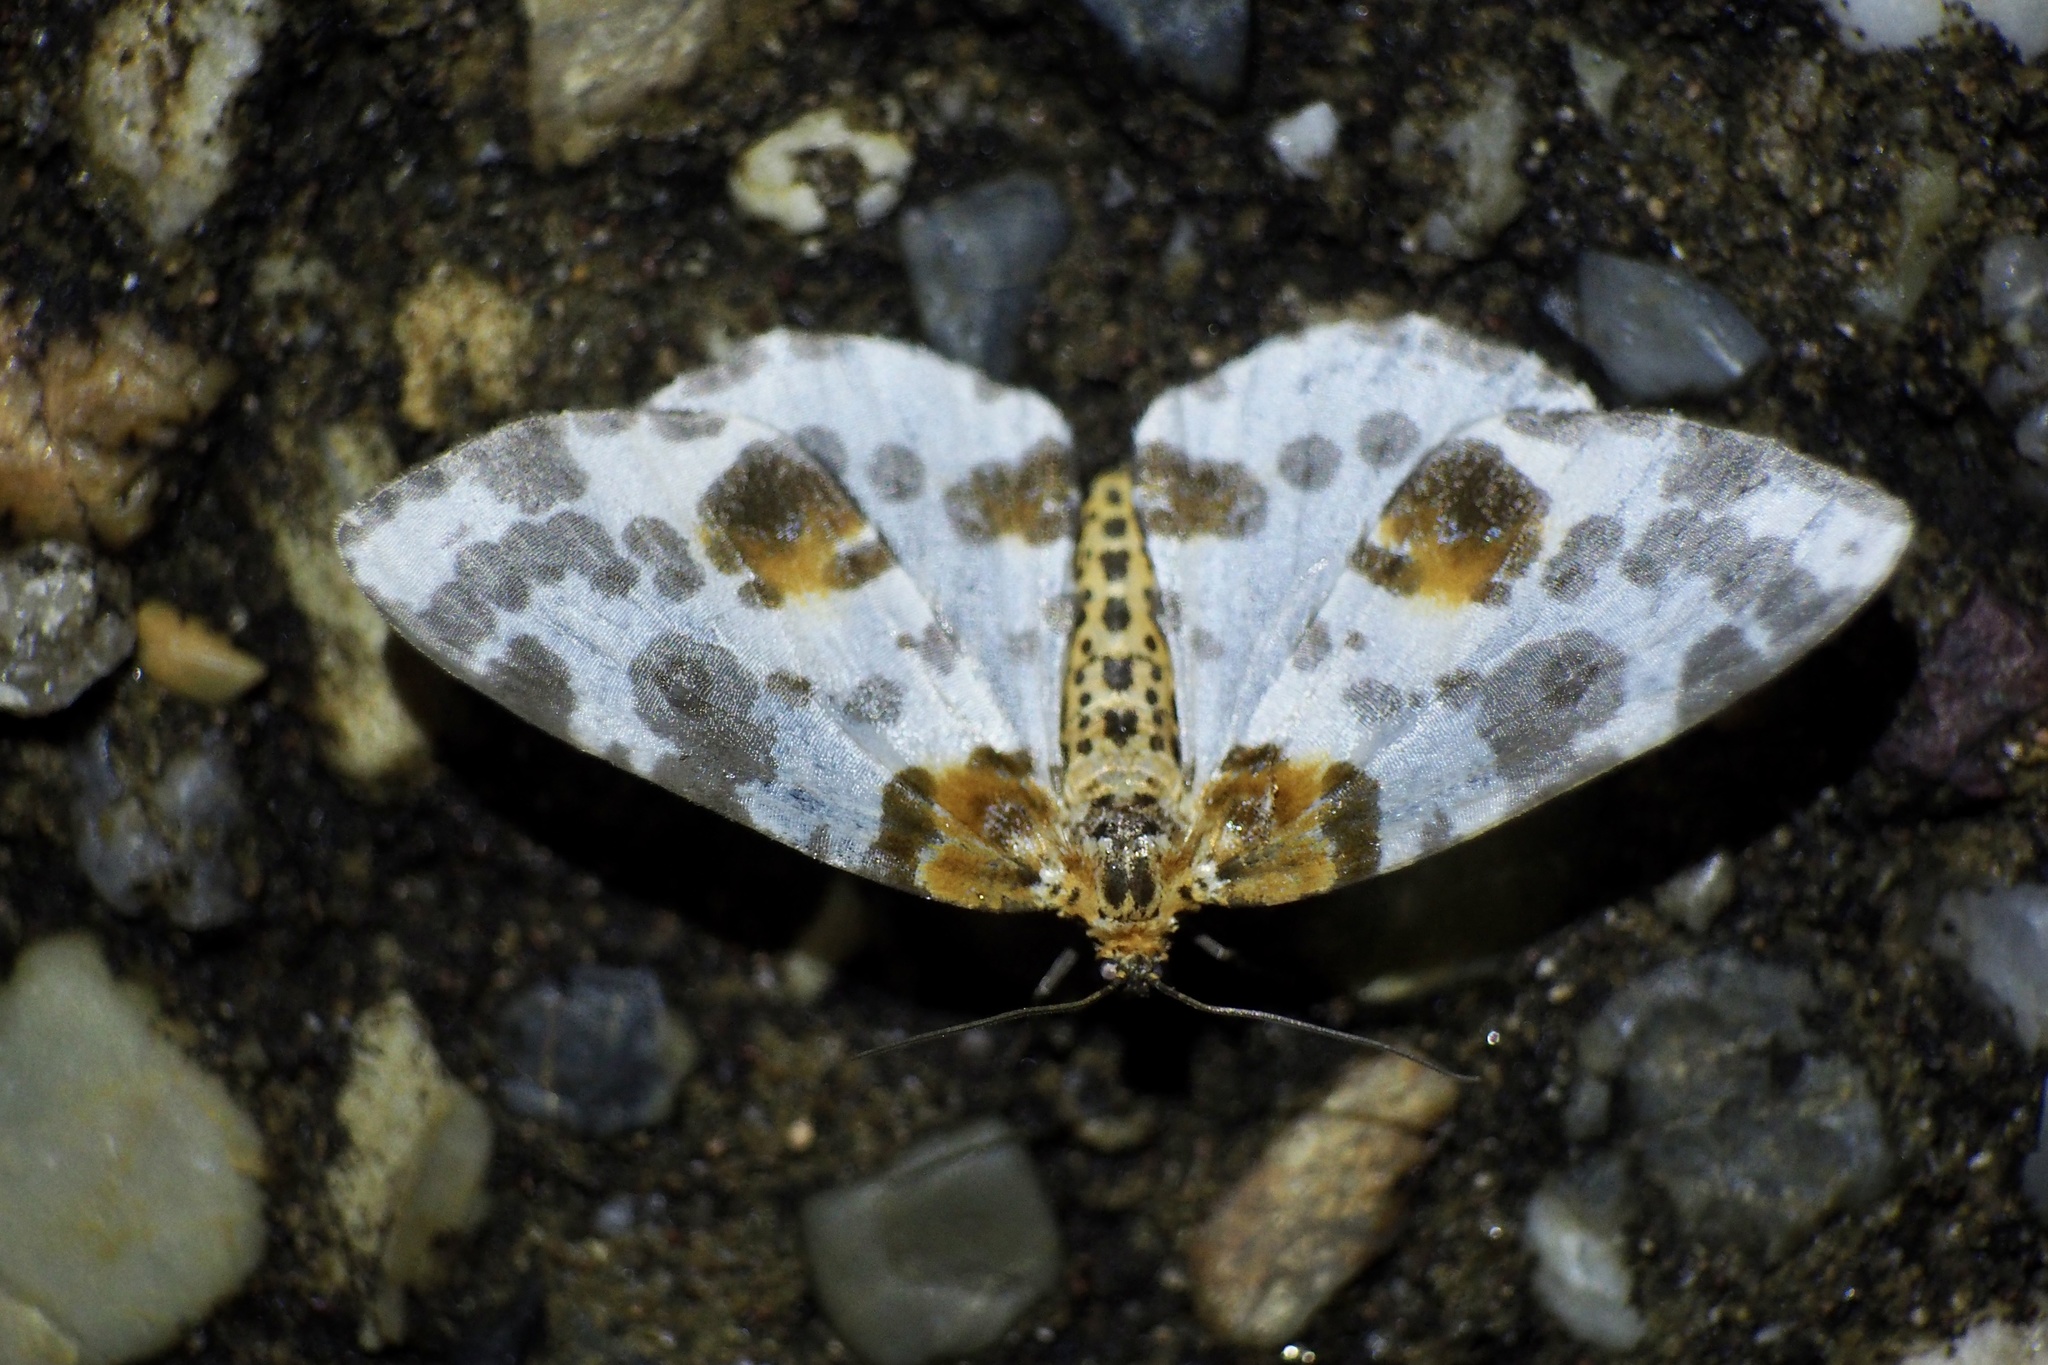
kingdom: Animalia
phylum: Arthropoda
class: Insecta
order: Lepidoptera
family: Geometridae
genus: Abraxas
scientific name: Abraxas niphonibia
